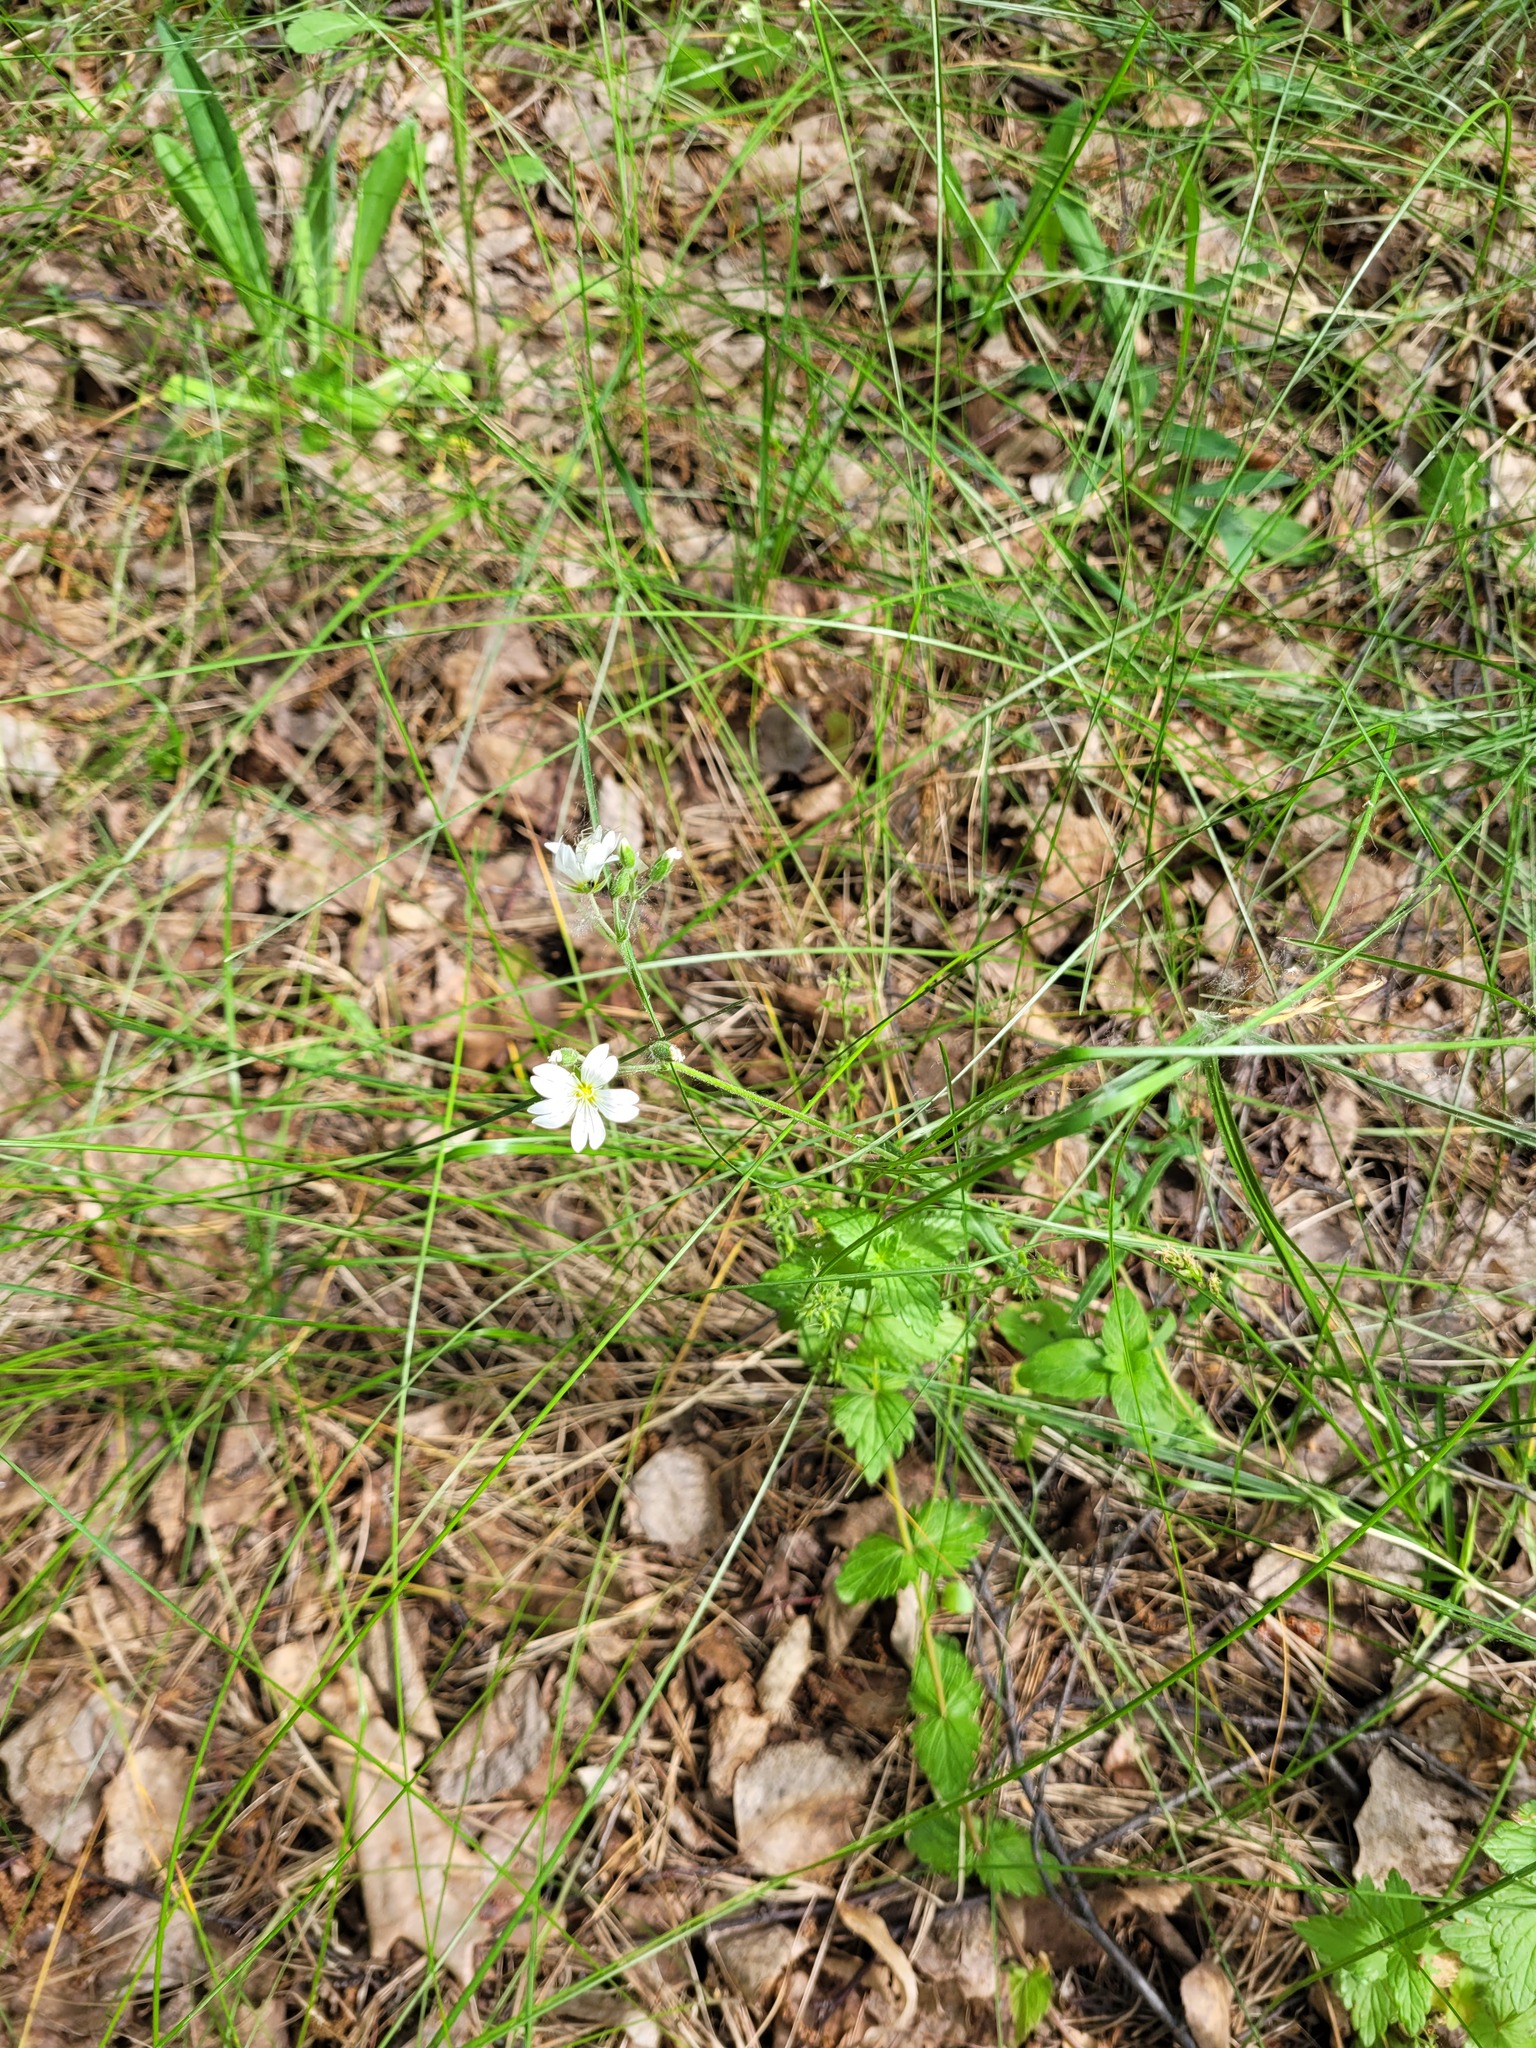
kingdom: Plantae
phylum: Tracheophyta
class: Magnoliopsida
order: Caryophyllales
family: Caryophyllaceae
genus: Cerastium
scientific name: Cerastium arvense
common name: Field mouse-ear
